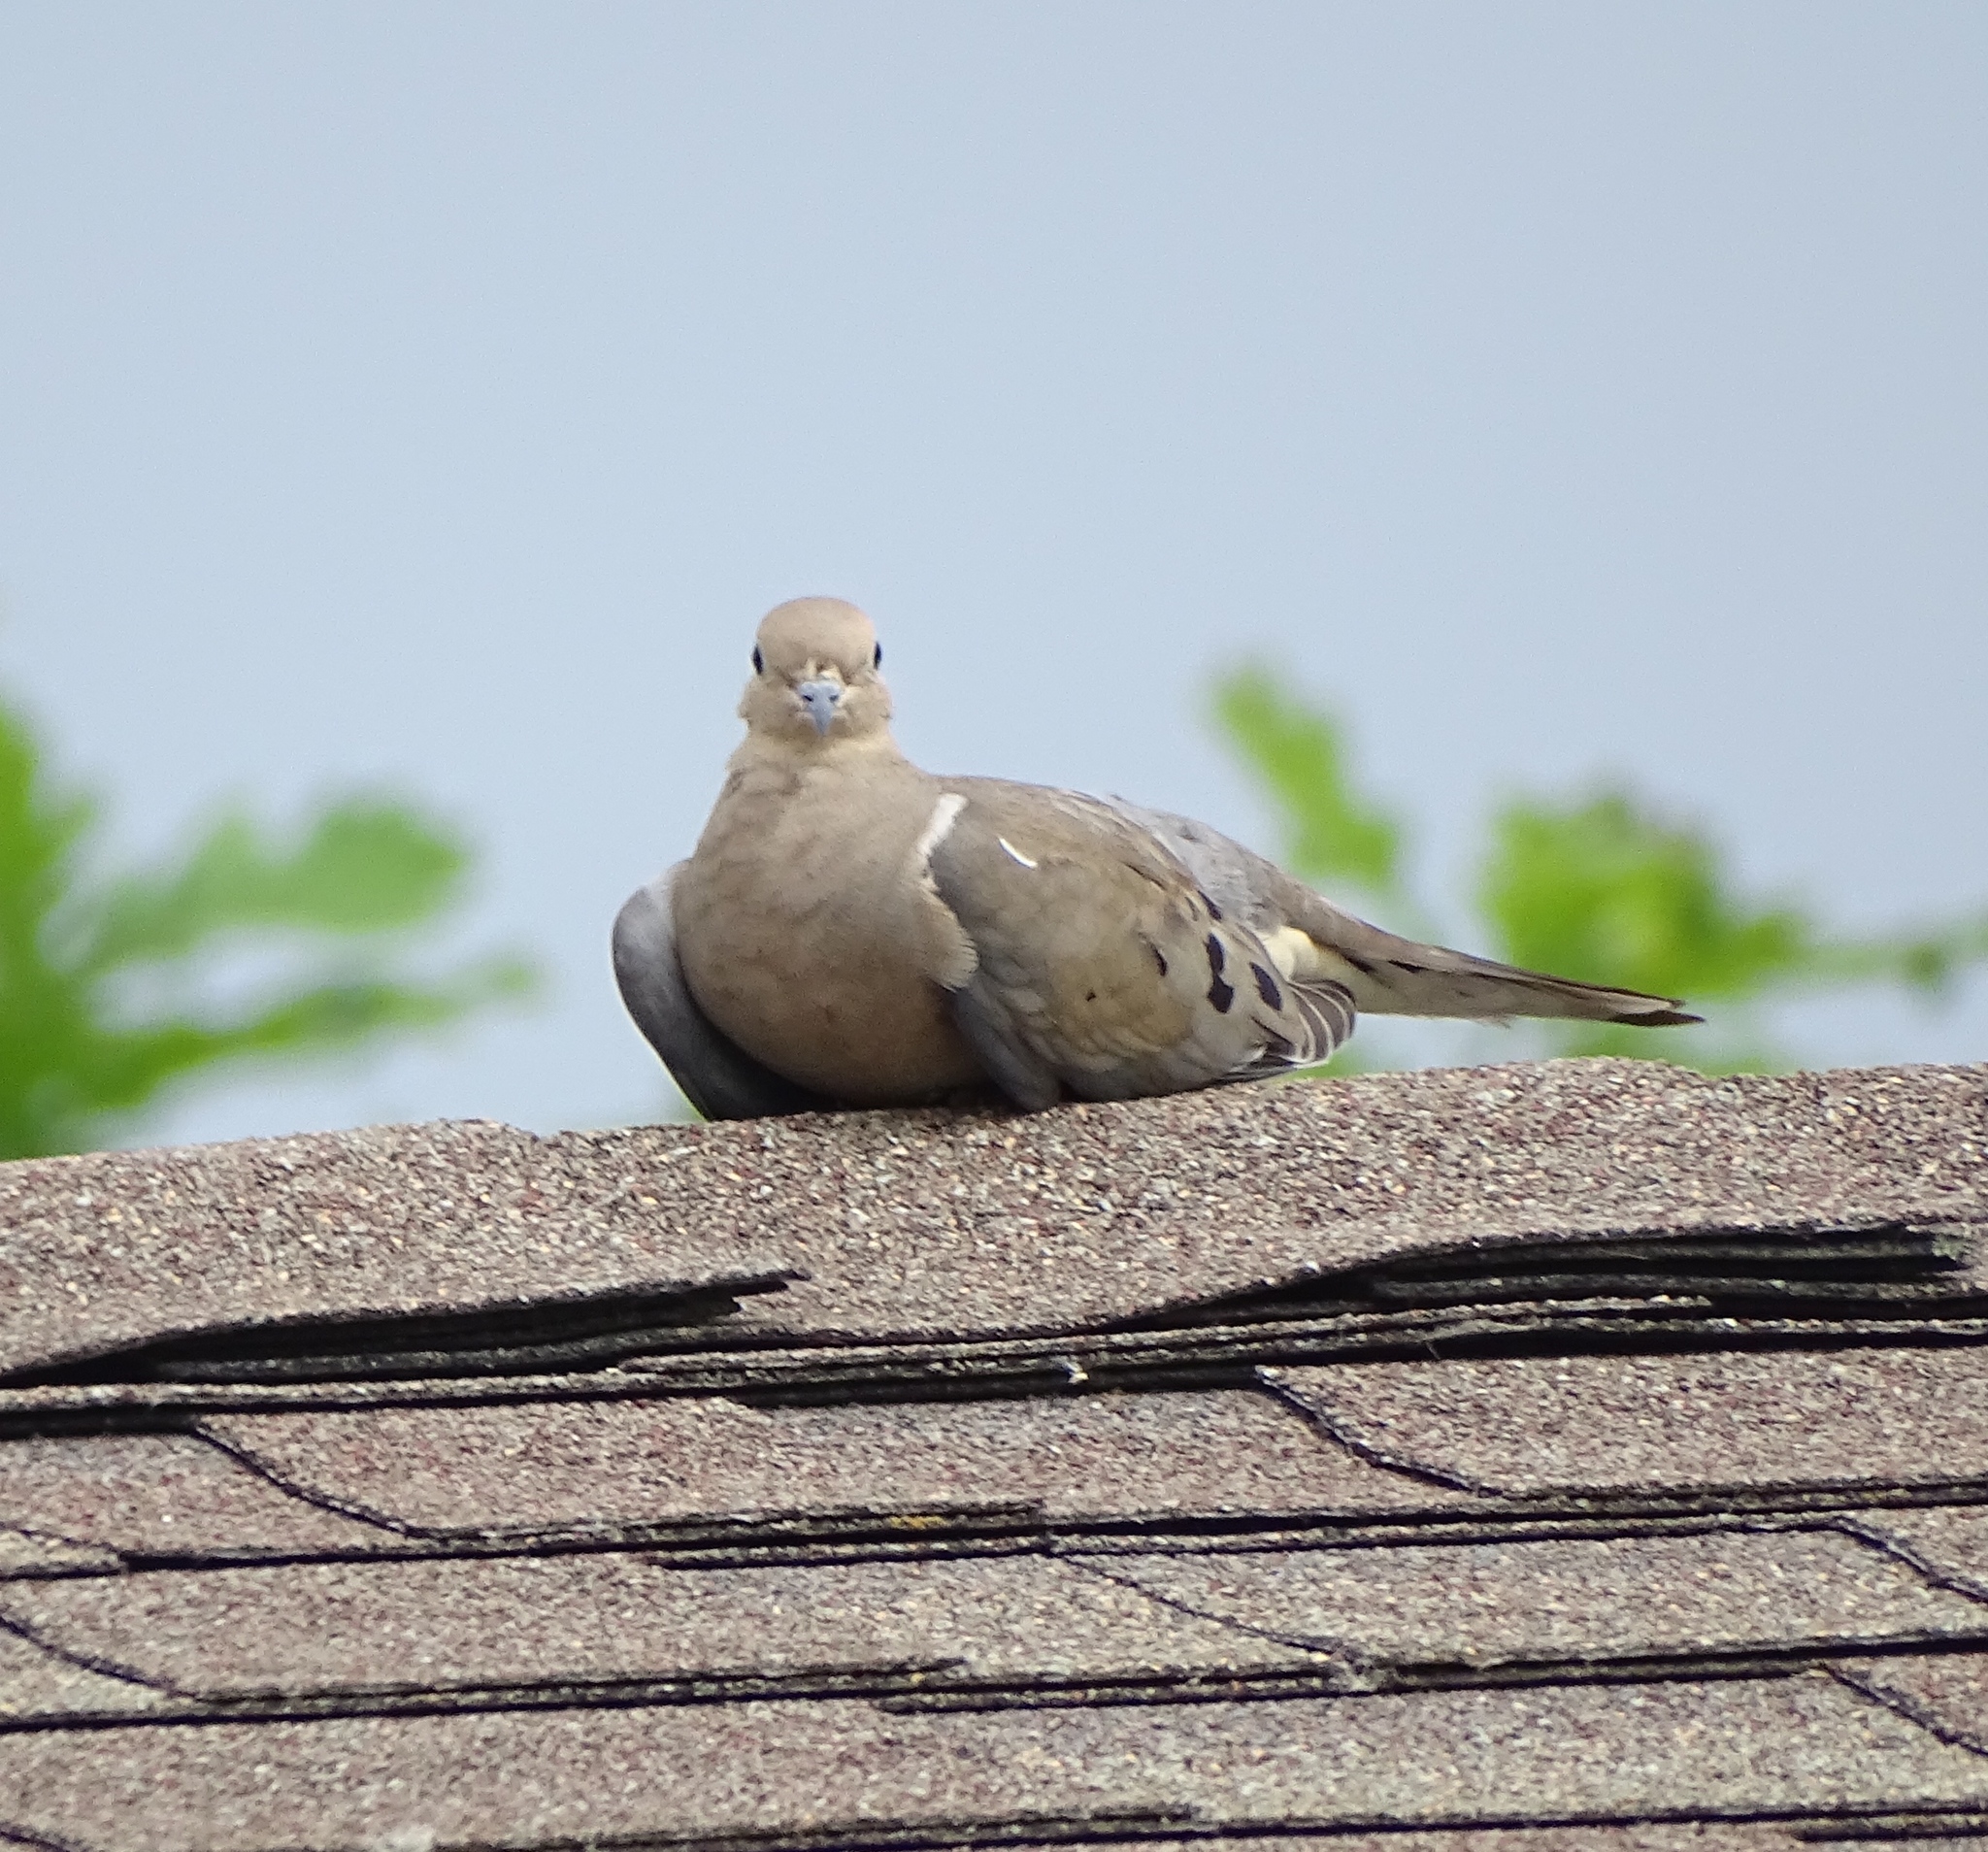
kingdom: Animalia
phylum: Chordata
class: Aves
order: Columbiformes
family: Columbidae
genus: Zenaida
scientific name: Zenaida macroura
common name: Mourning dove
